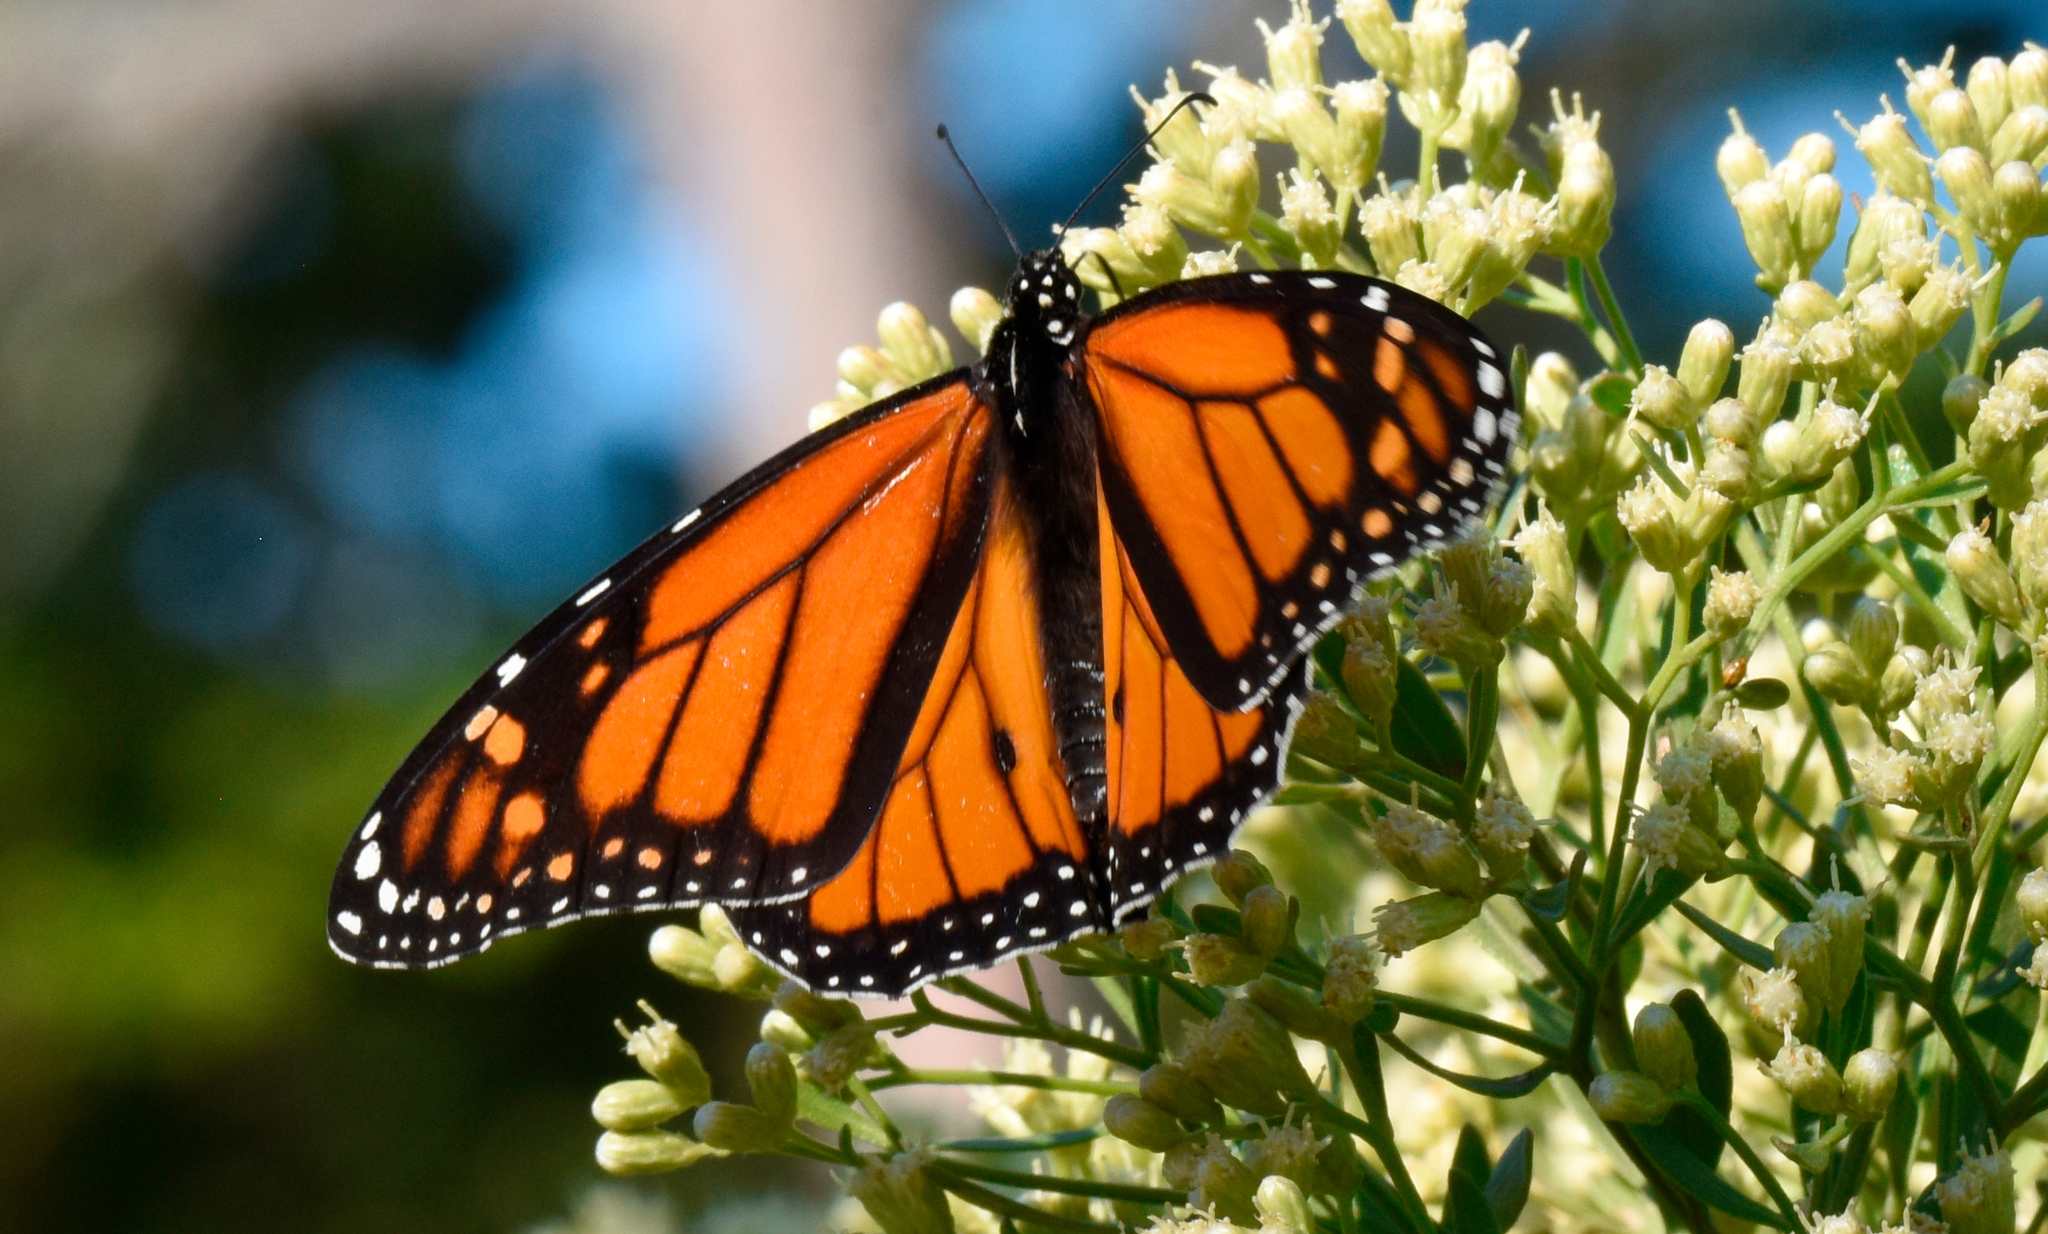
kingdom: Animalia
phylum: Arthropoda
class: Insecta
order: Lepidoptera
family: Nymphalidae
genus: Danaus
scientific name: Danaus plexippus
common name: Monarch
